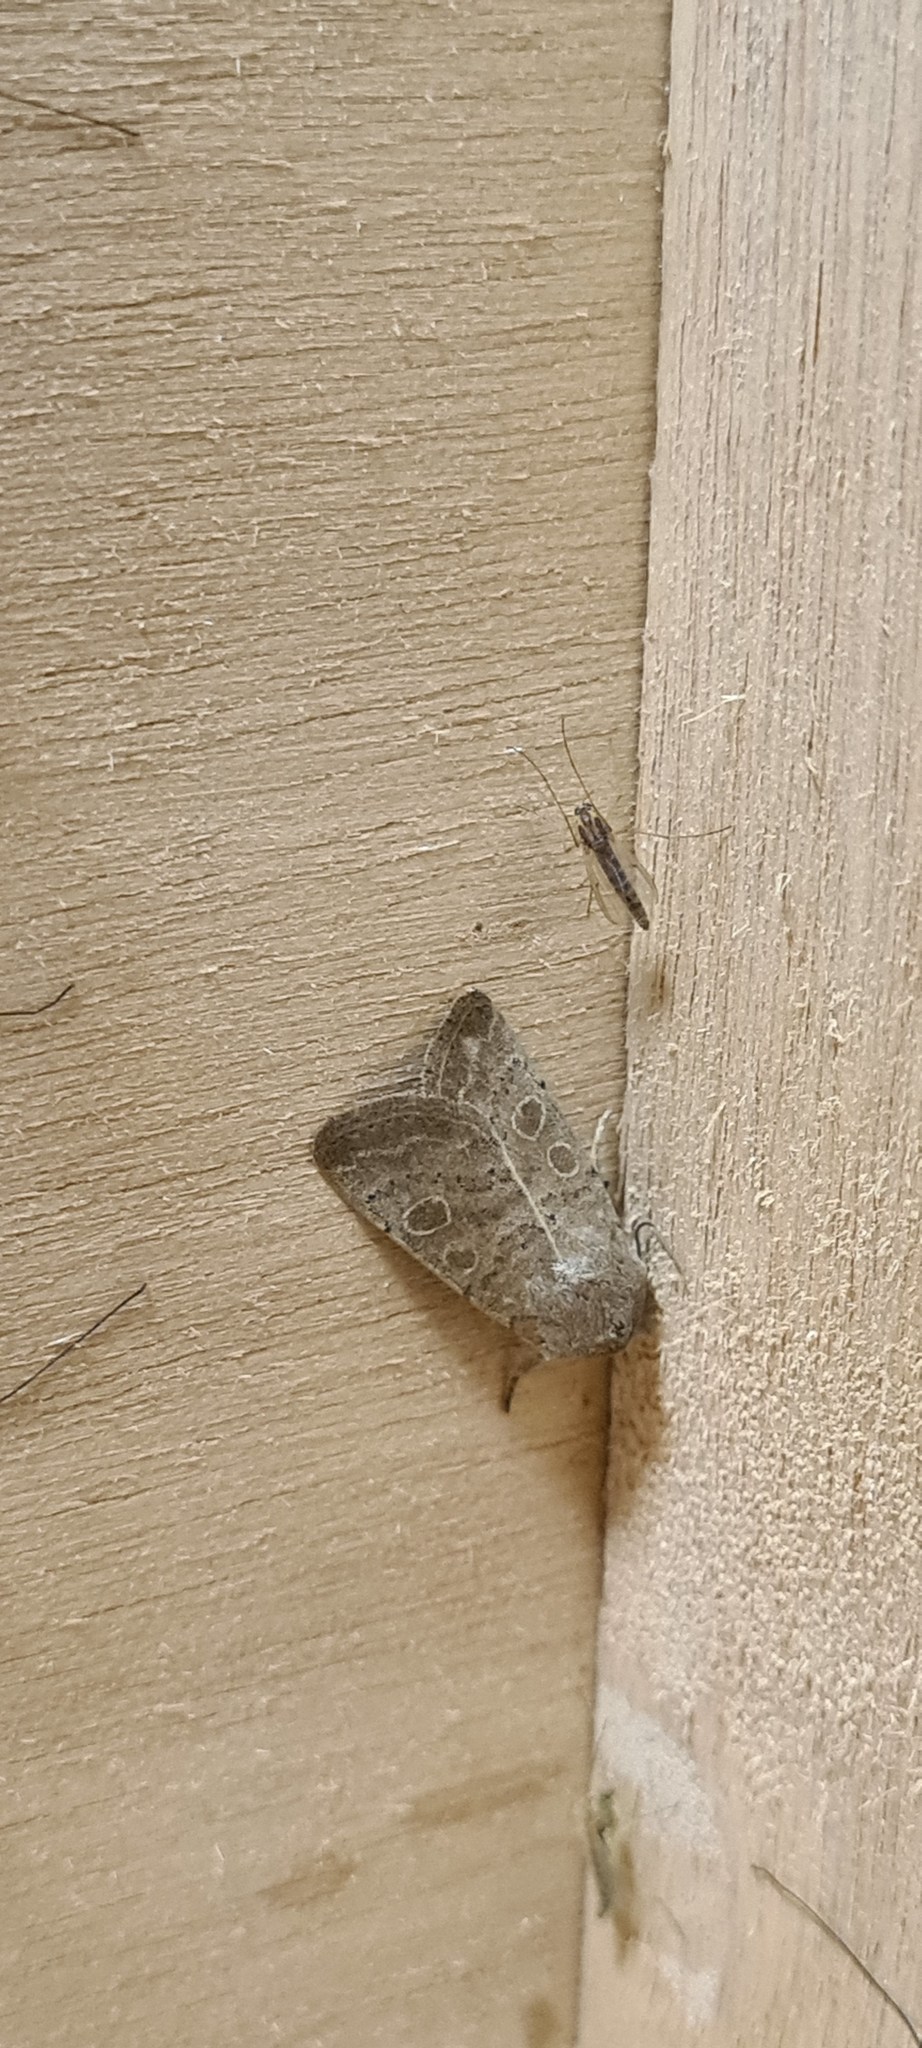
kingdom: Animalia
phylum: Arthropoda
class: Insecta
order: Lepidoptera
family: Noctuidae
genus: Hoplodrina
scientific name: Hoplodrina ambigua
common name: Vine's rustic
